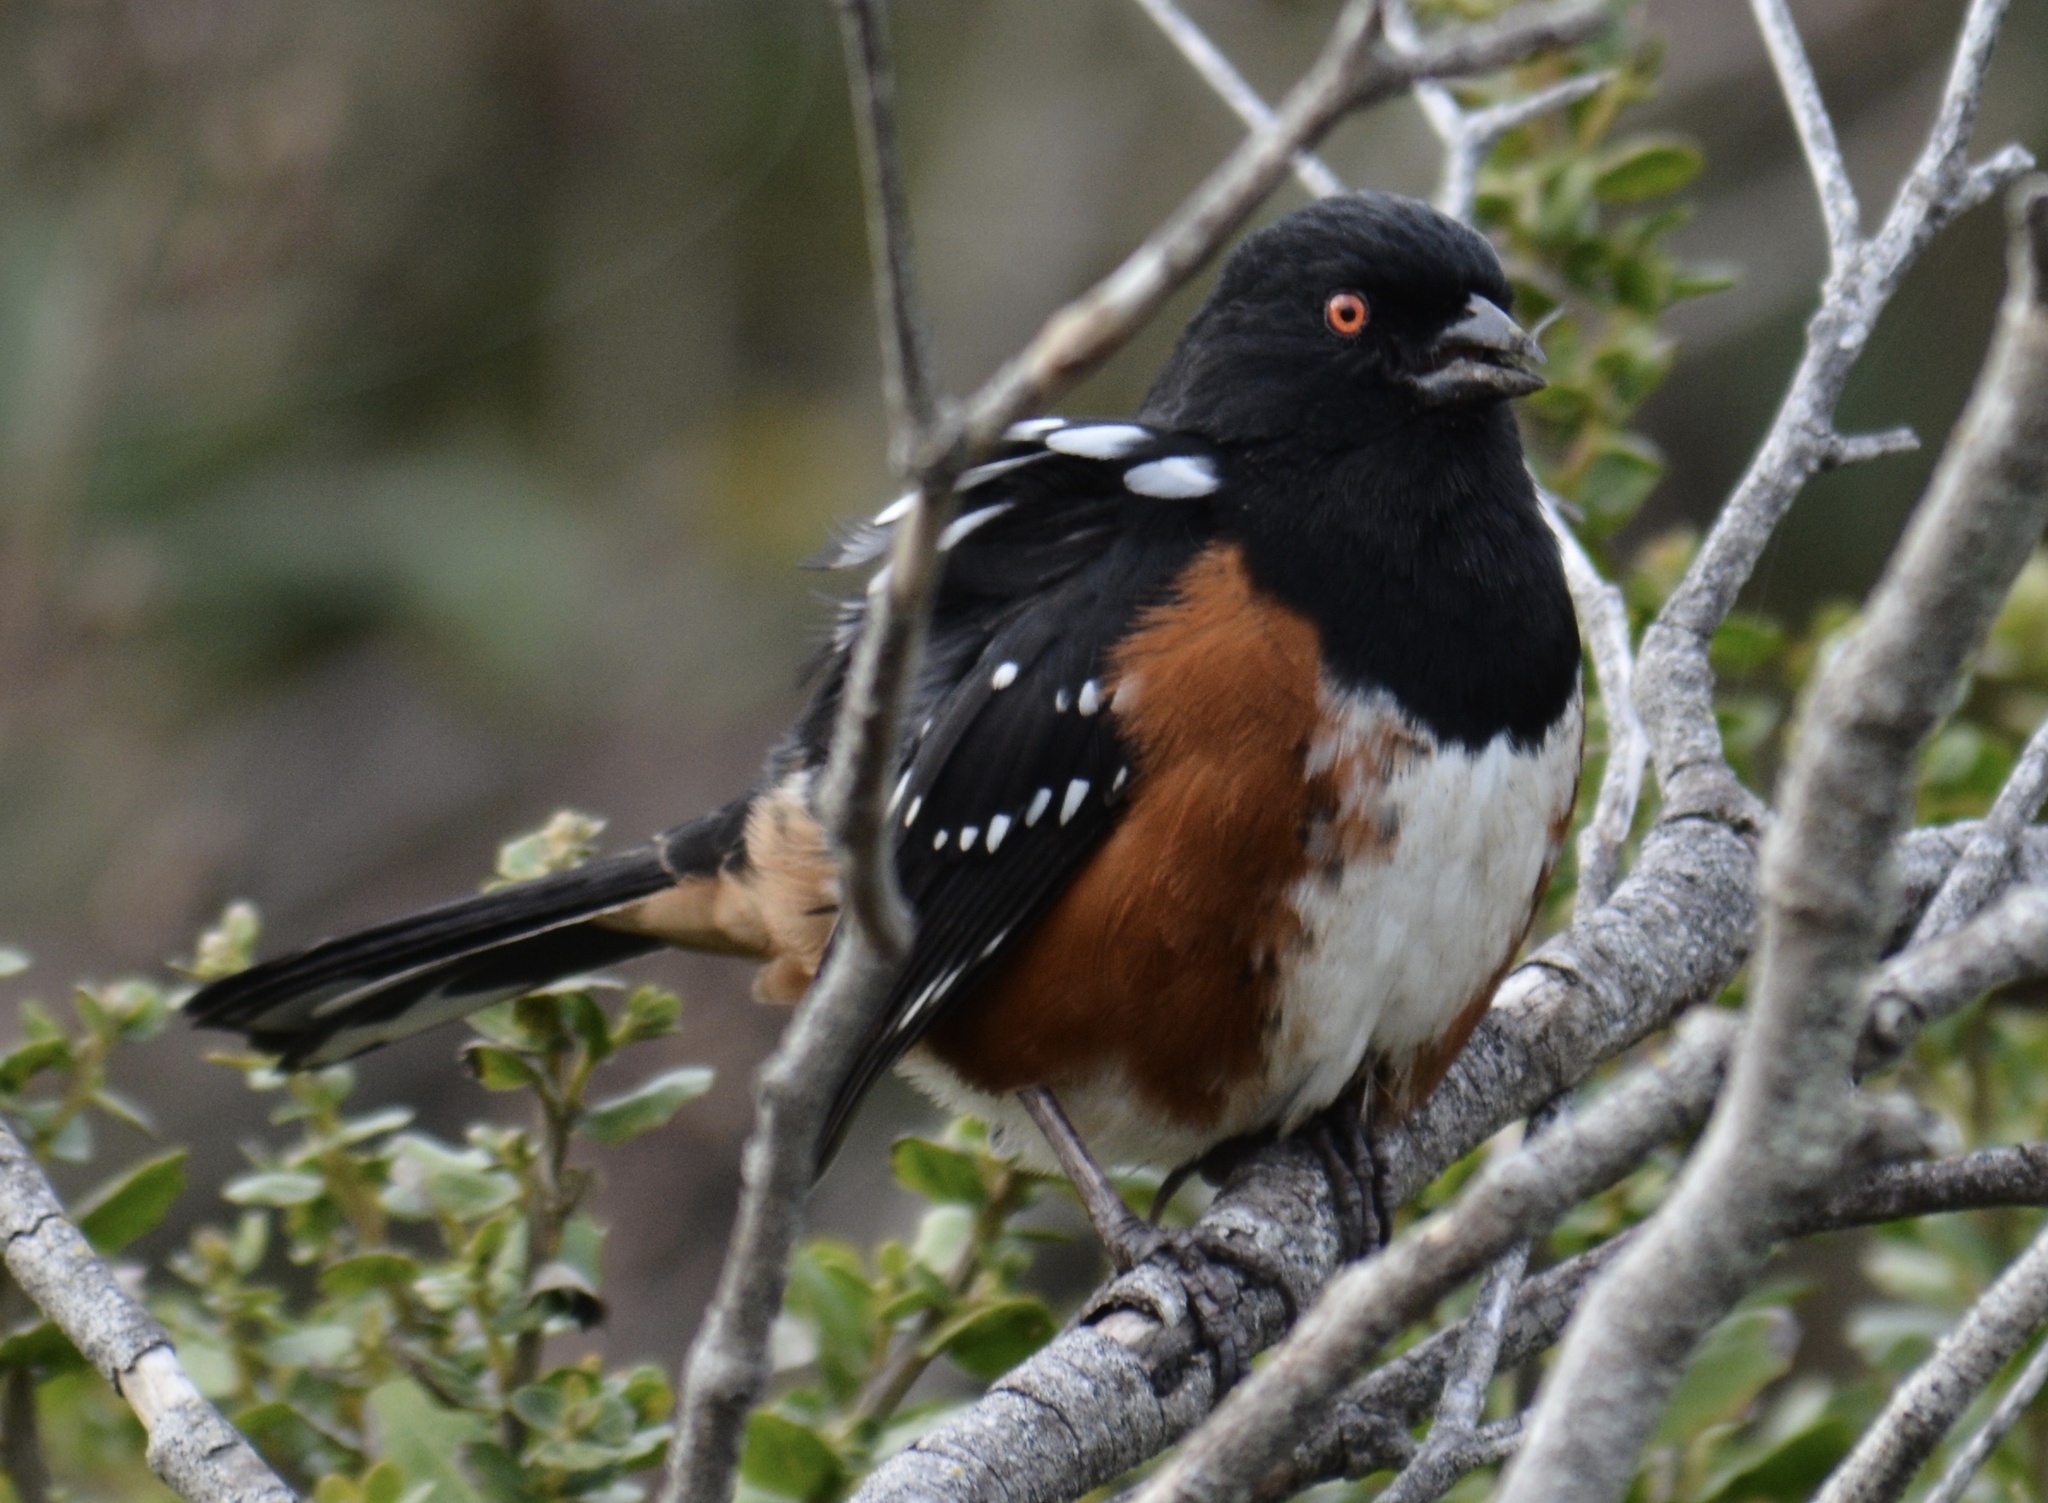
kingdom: Animalia
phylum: Chordata
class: Aves
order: Passeriformes
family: Passerellidae
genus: Pipilo
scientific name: Pipilo maculatus
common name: Spotted towhee
